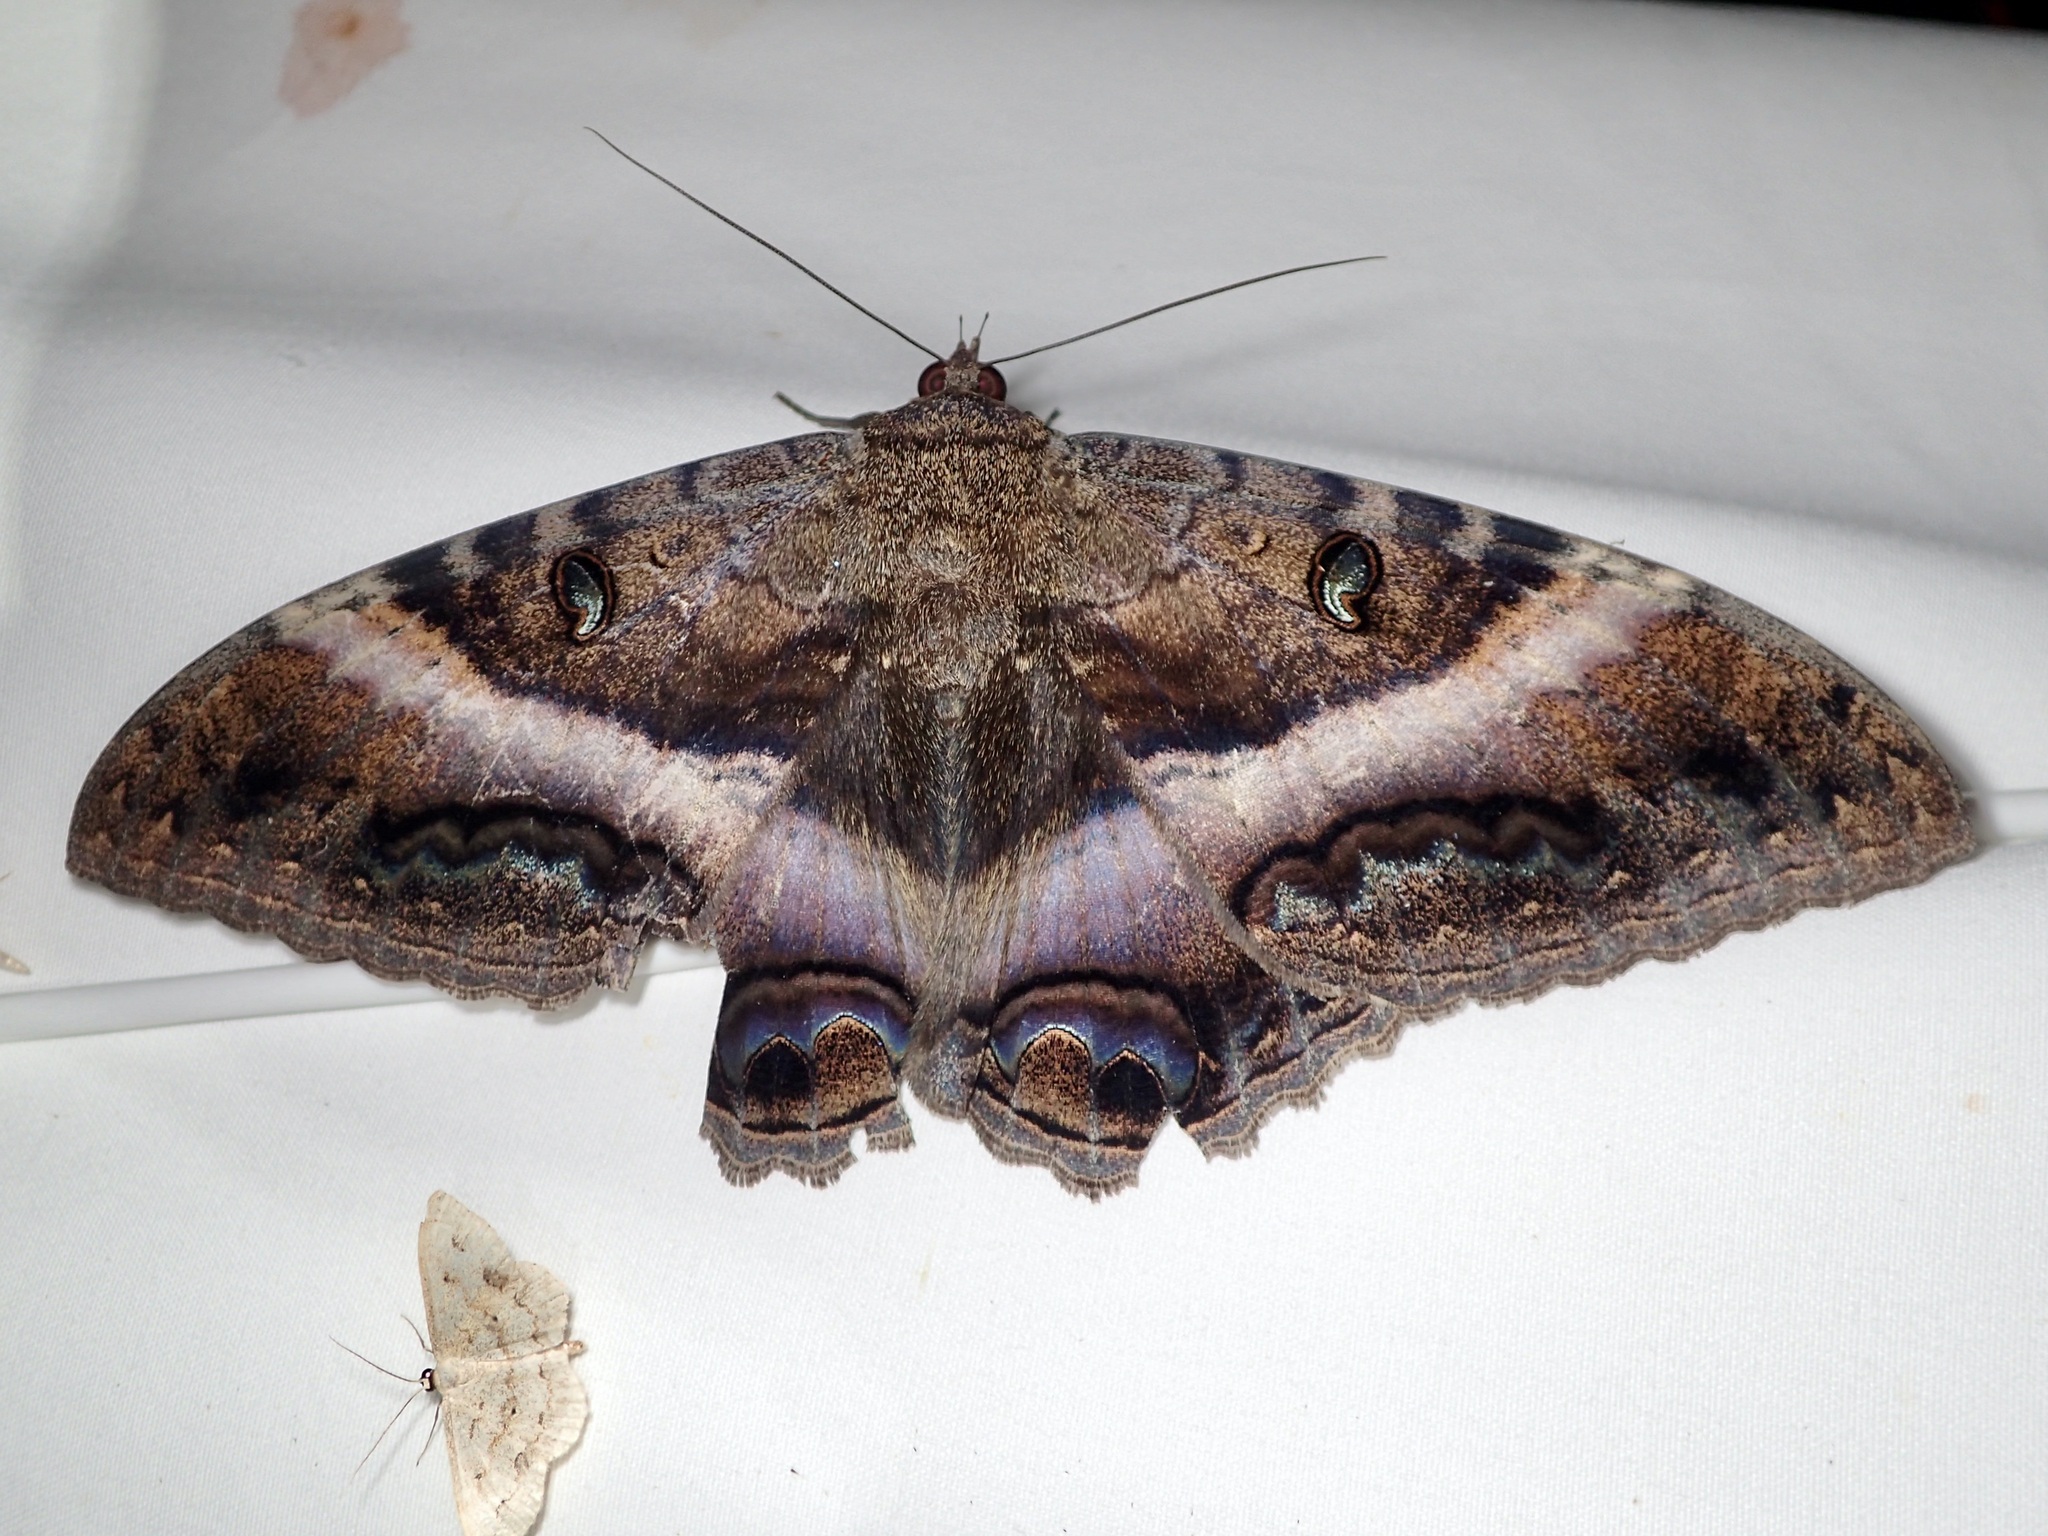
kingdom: Animalia
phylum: Arthropoda
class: Insecta
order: Lepidoptera
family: Erebidae
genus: Ascalapha
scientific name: Ascalapha odorata
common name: Black witch
